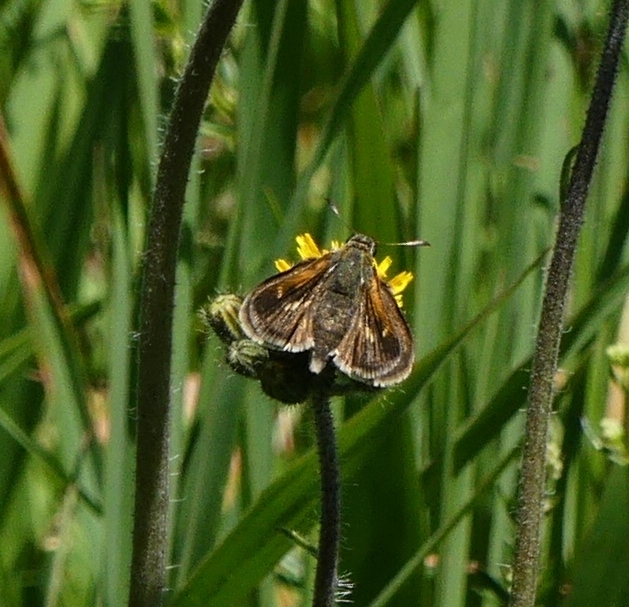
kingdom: Animalia
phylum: Arthropoda
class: Insecta
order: Lepidoptera
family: Hesperiidae
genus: Polites
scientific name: Polites themistocles
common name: Tawny-edged skipper
